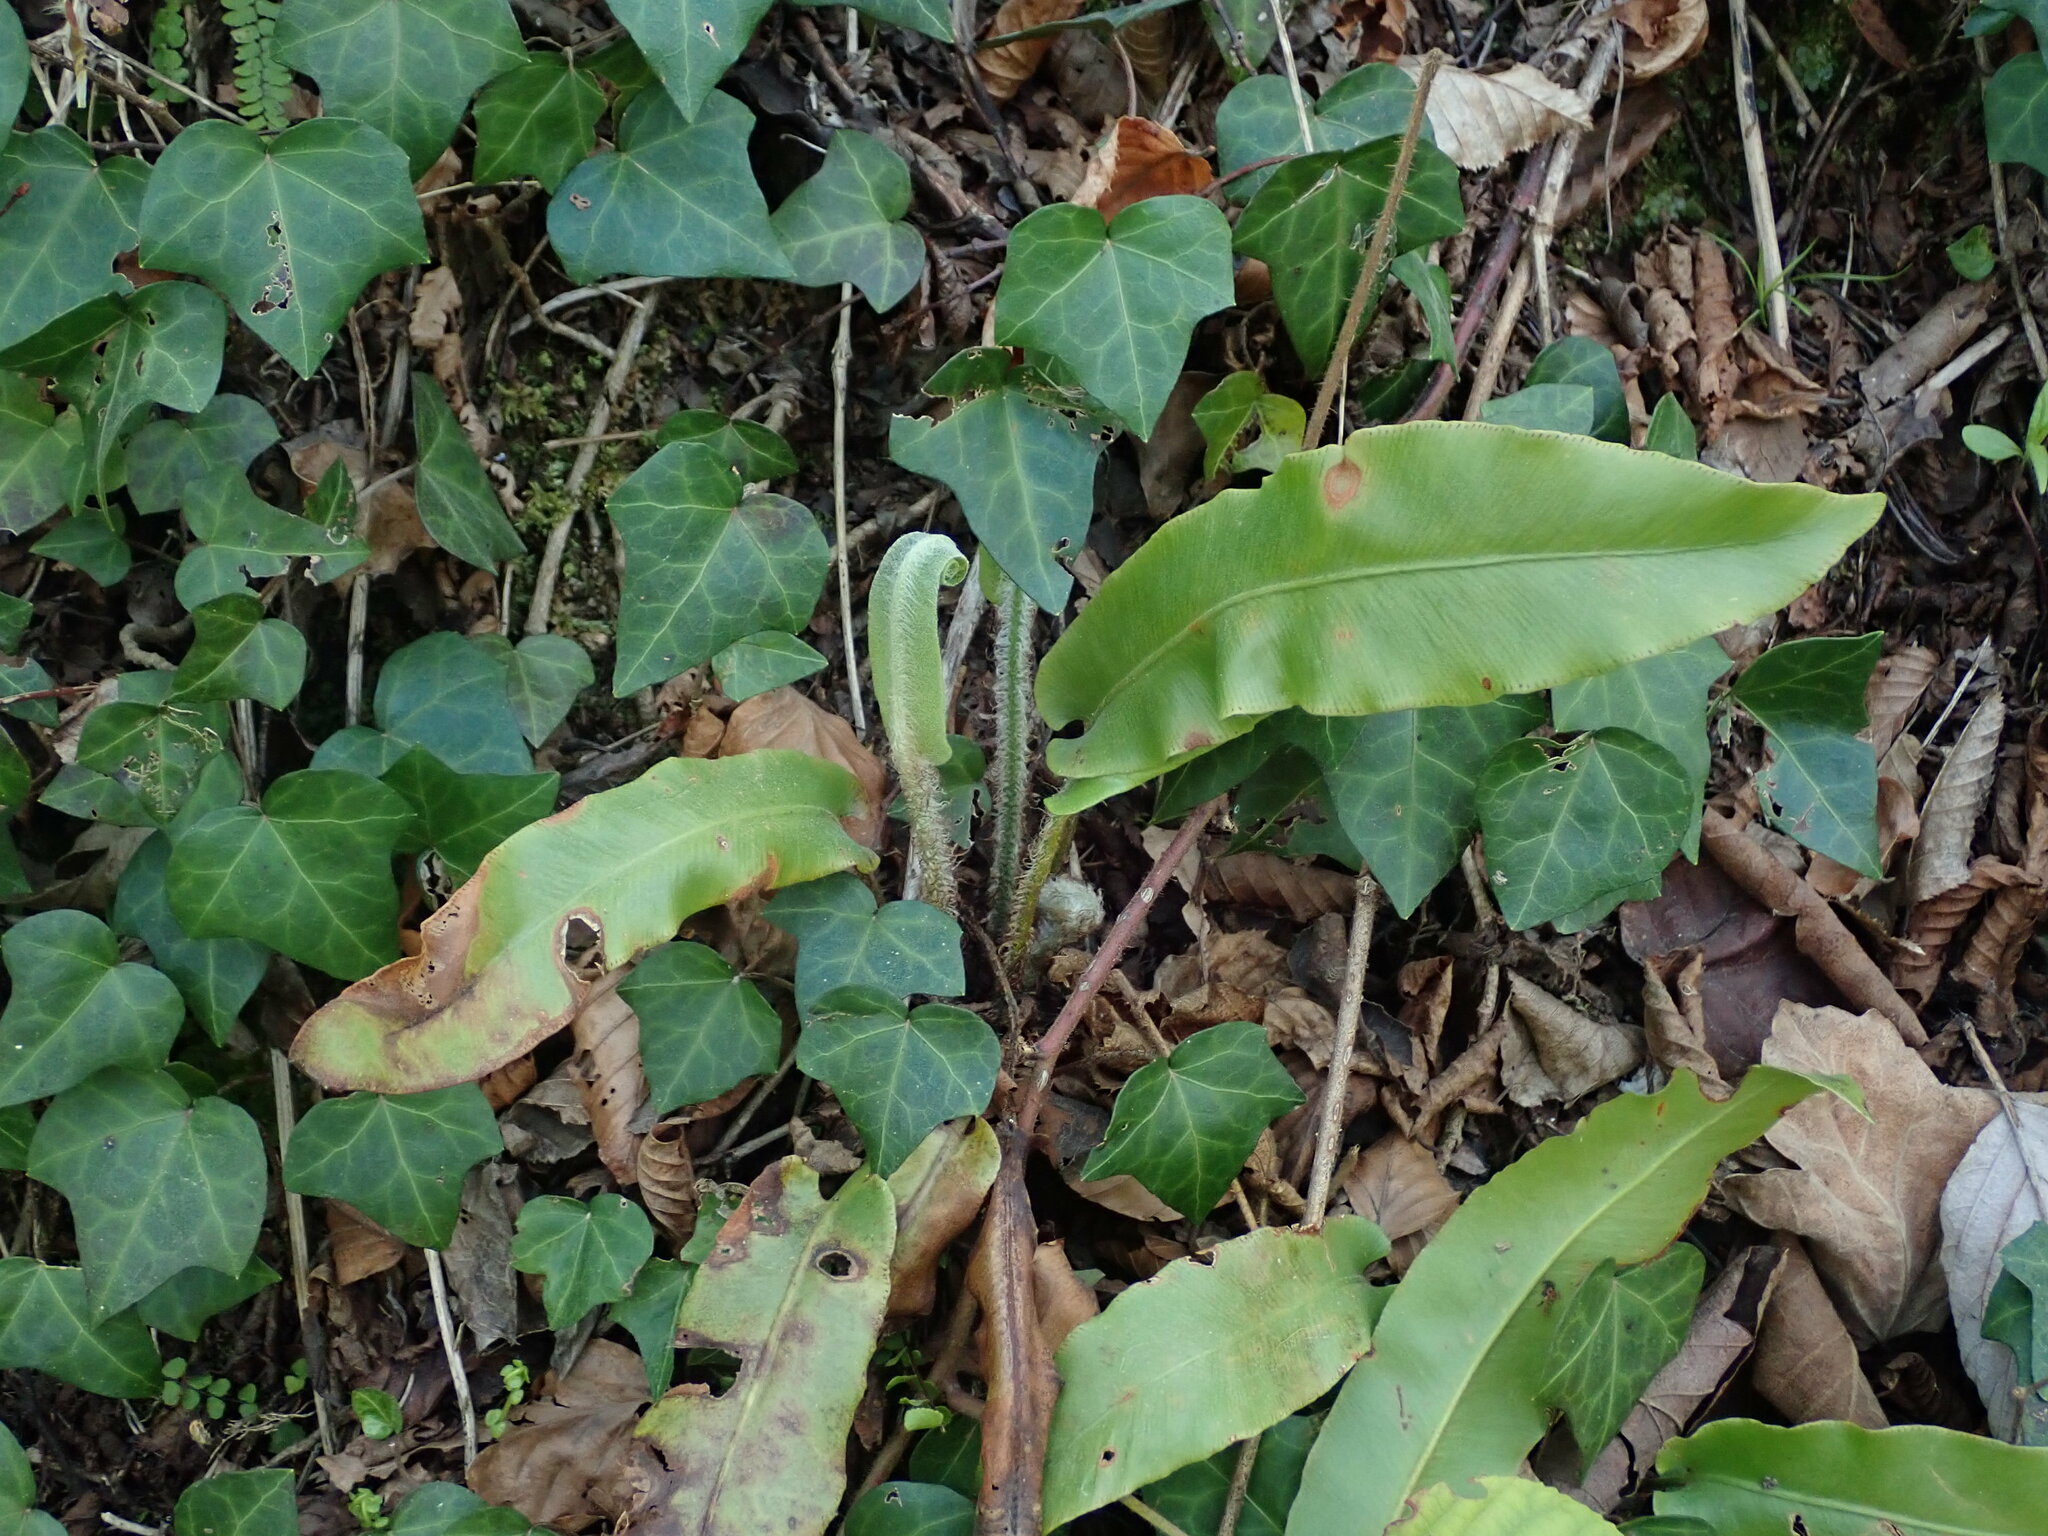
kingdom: Plantae
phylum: Tracheophyta
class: Polypodiopsida
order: Polypodiales
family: Aspleniaceae
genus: Asplenium
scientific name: Asplenium scolopendrium
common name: Hart's-tongue fern
